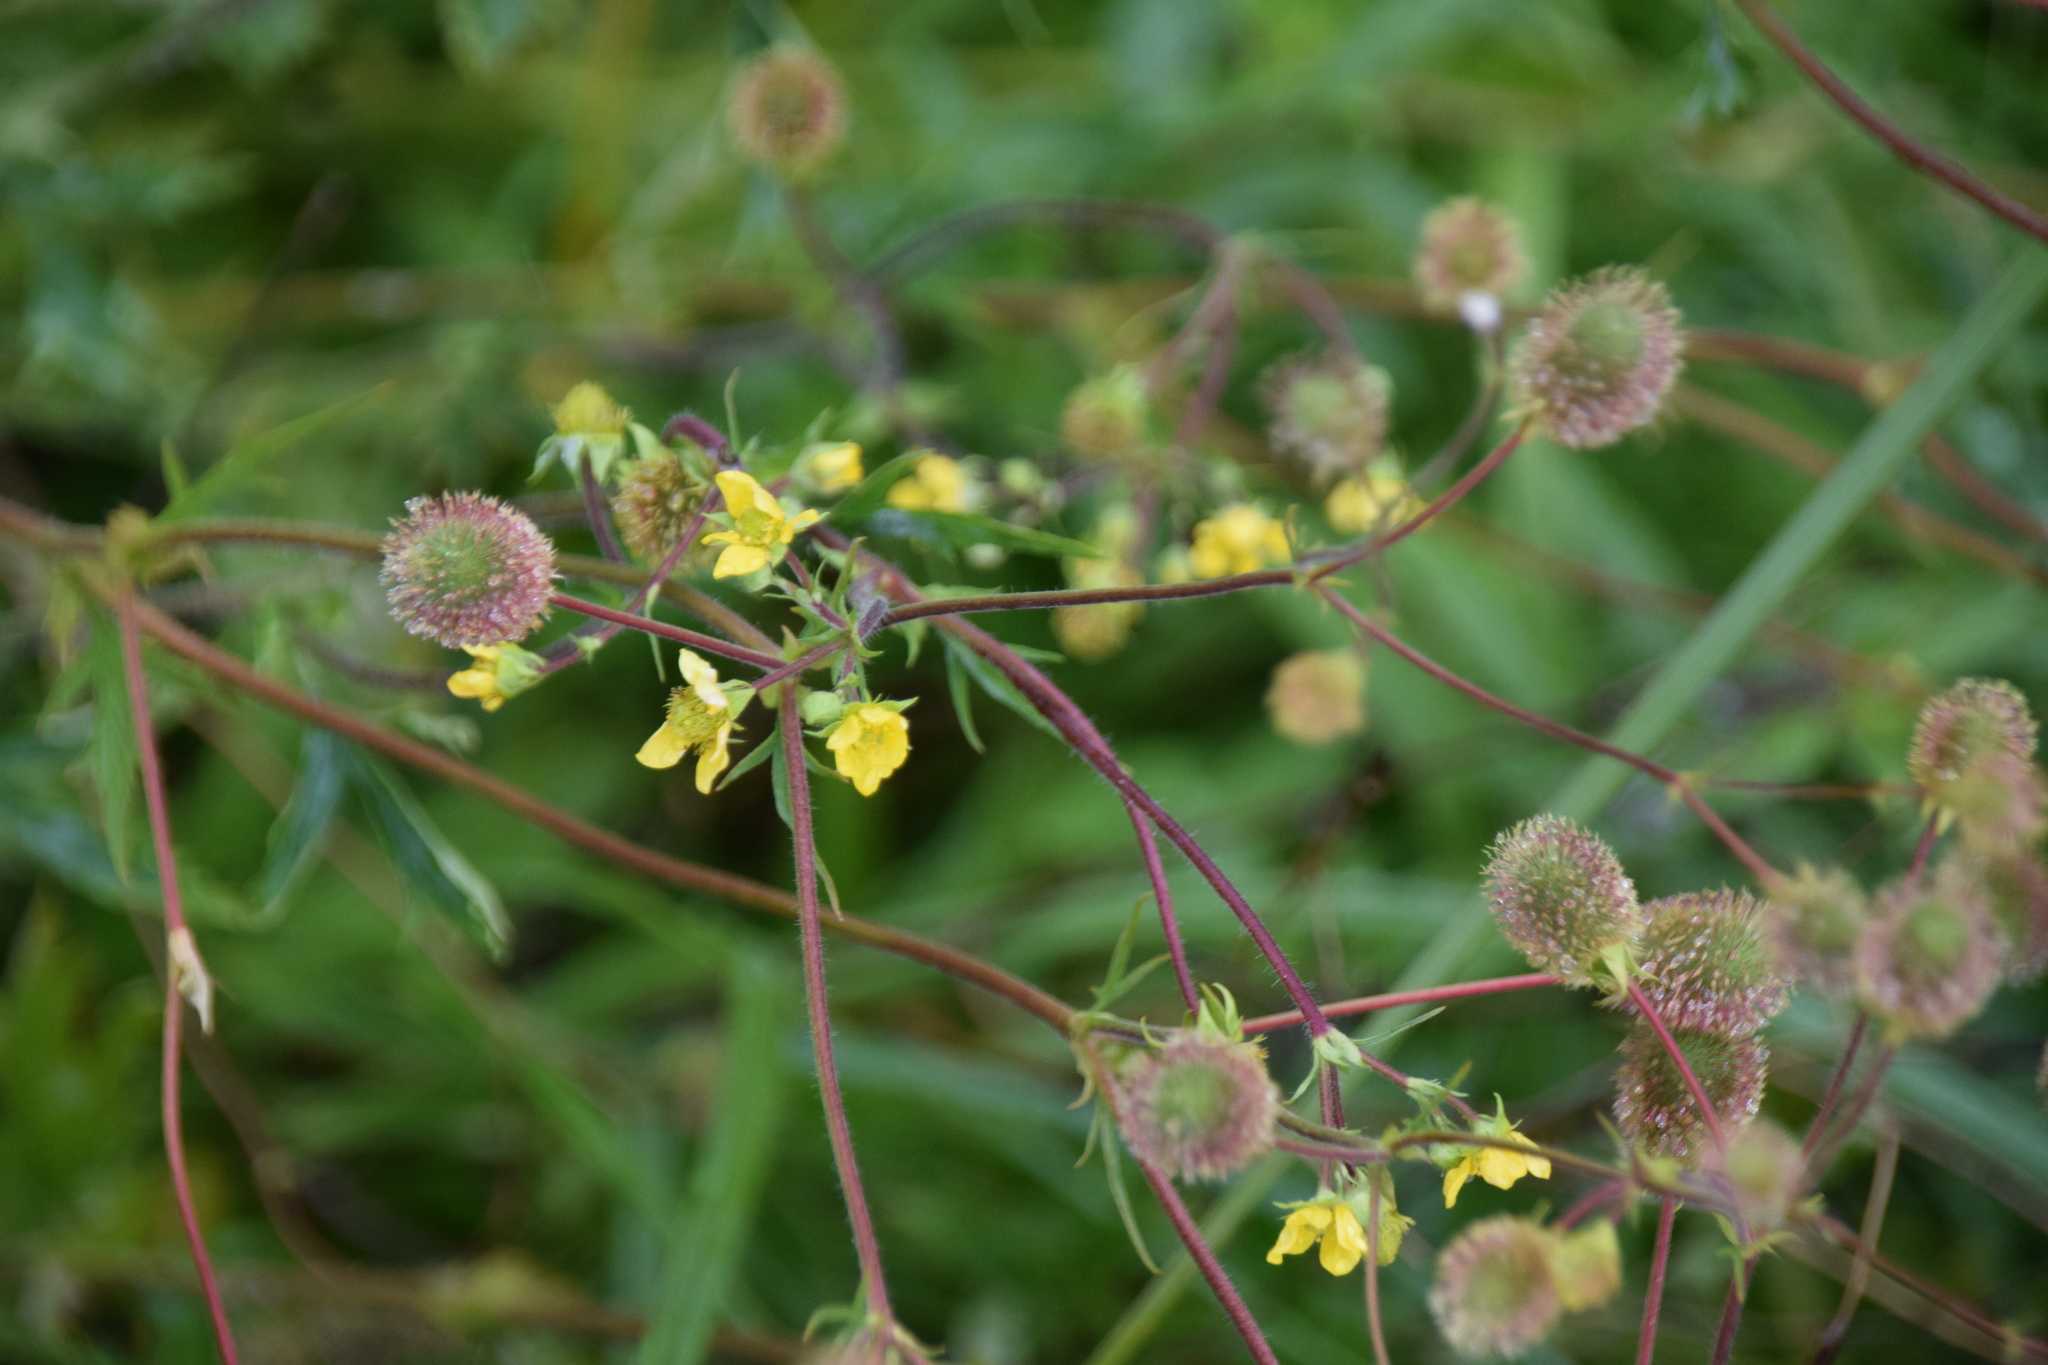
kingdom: Plantae
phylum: Tracheophyta
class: Magnoliopsida
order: Rosales
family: Rosaceae
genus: Geum
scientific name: Geum aleppicum
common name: Yellow avens
